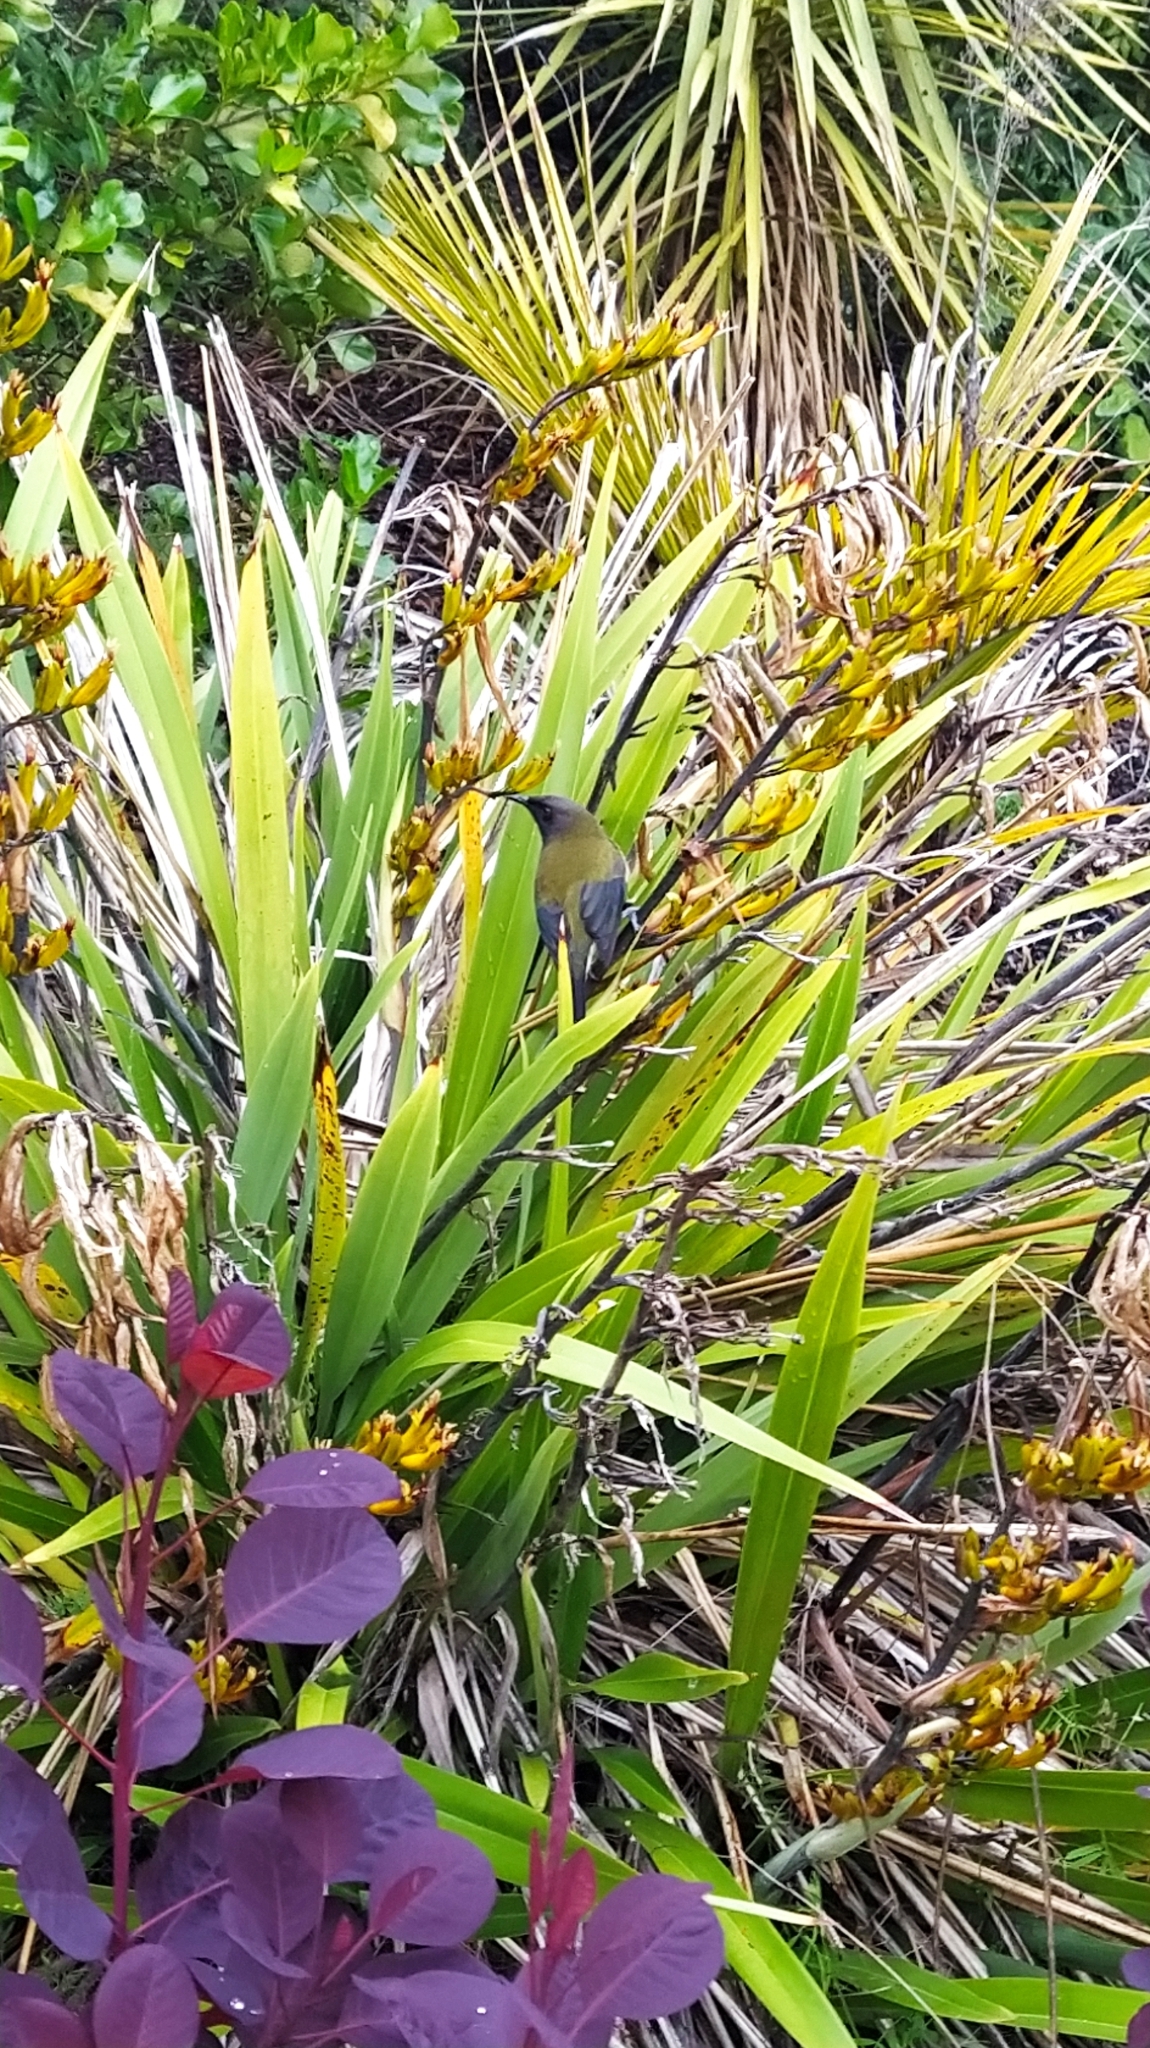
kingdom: Animalia
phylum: Chordata
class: Aves
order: Passeriformes
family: Meliphagidae
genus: Anthornis
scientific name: Anthornis melanura
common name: New zealand bellbird
